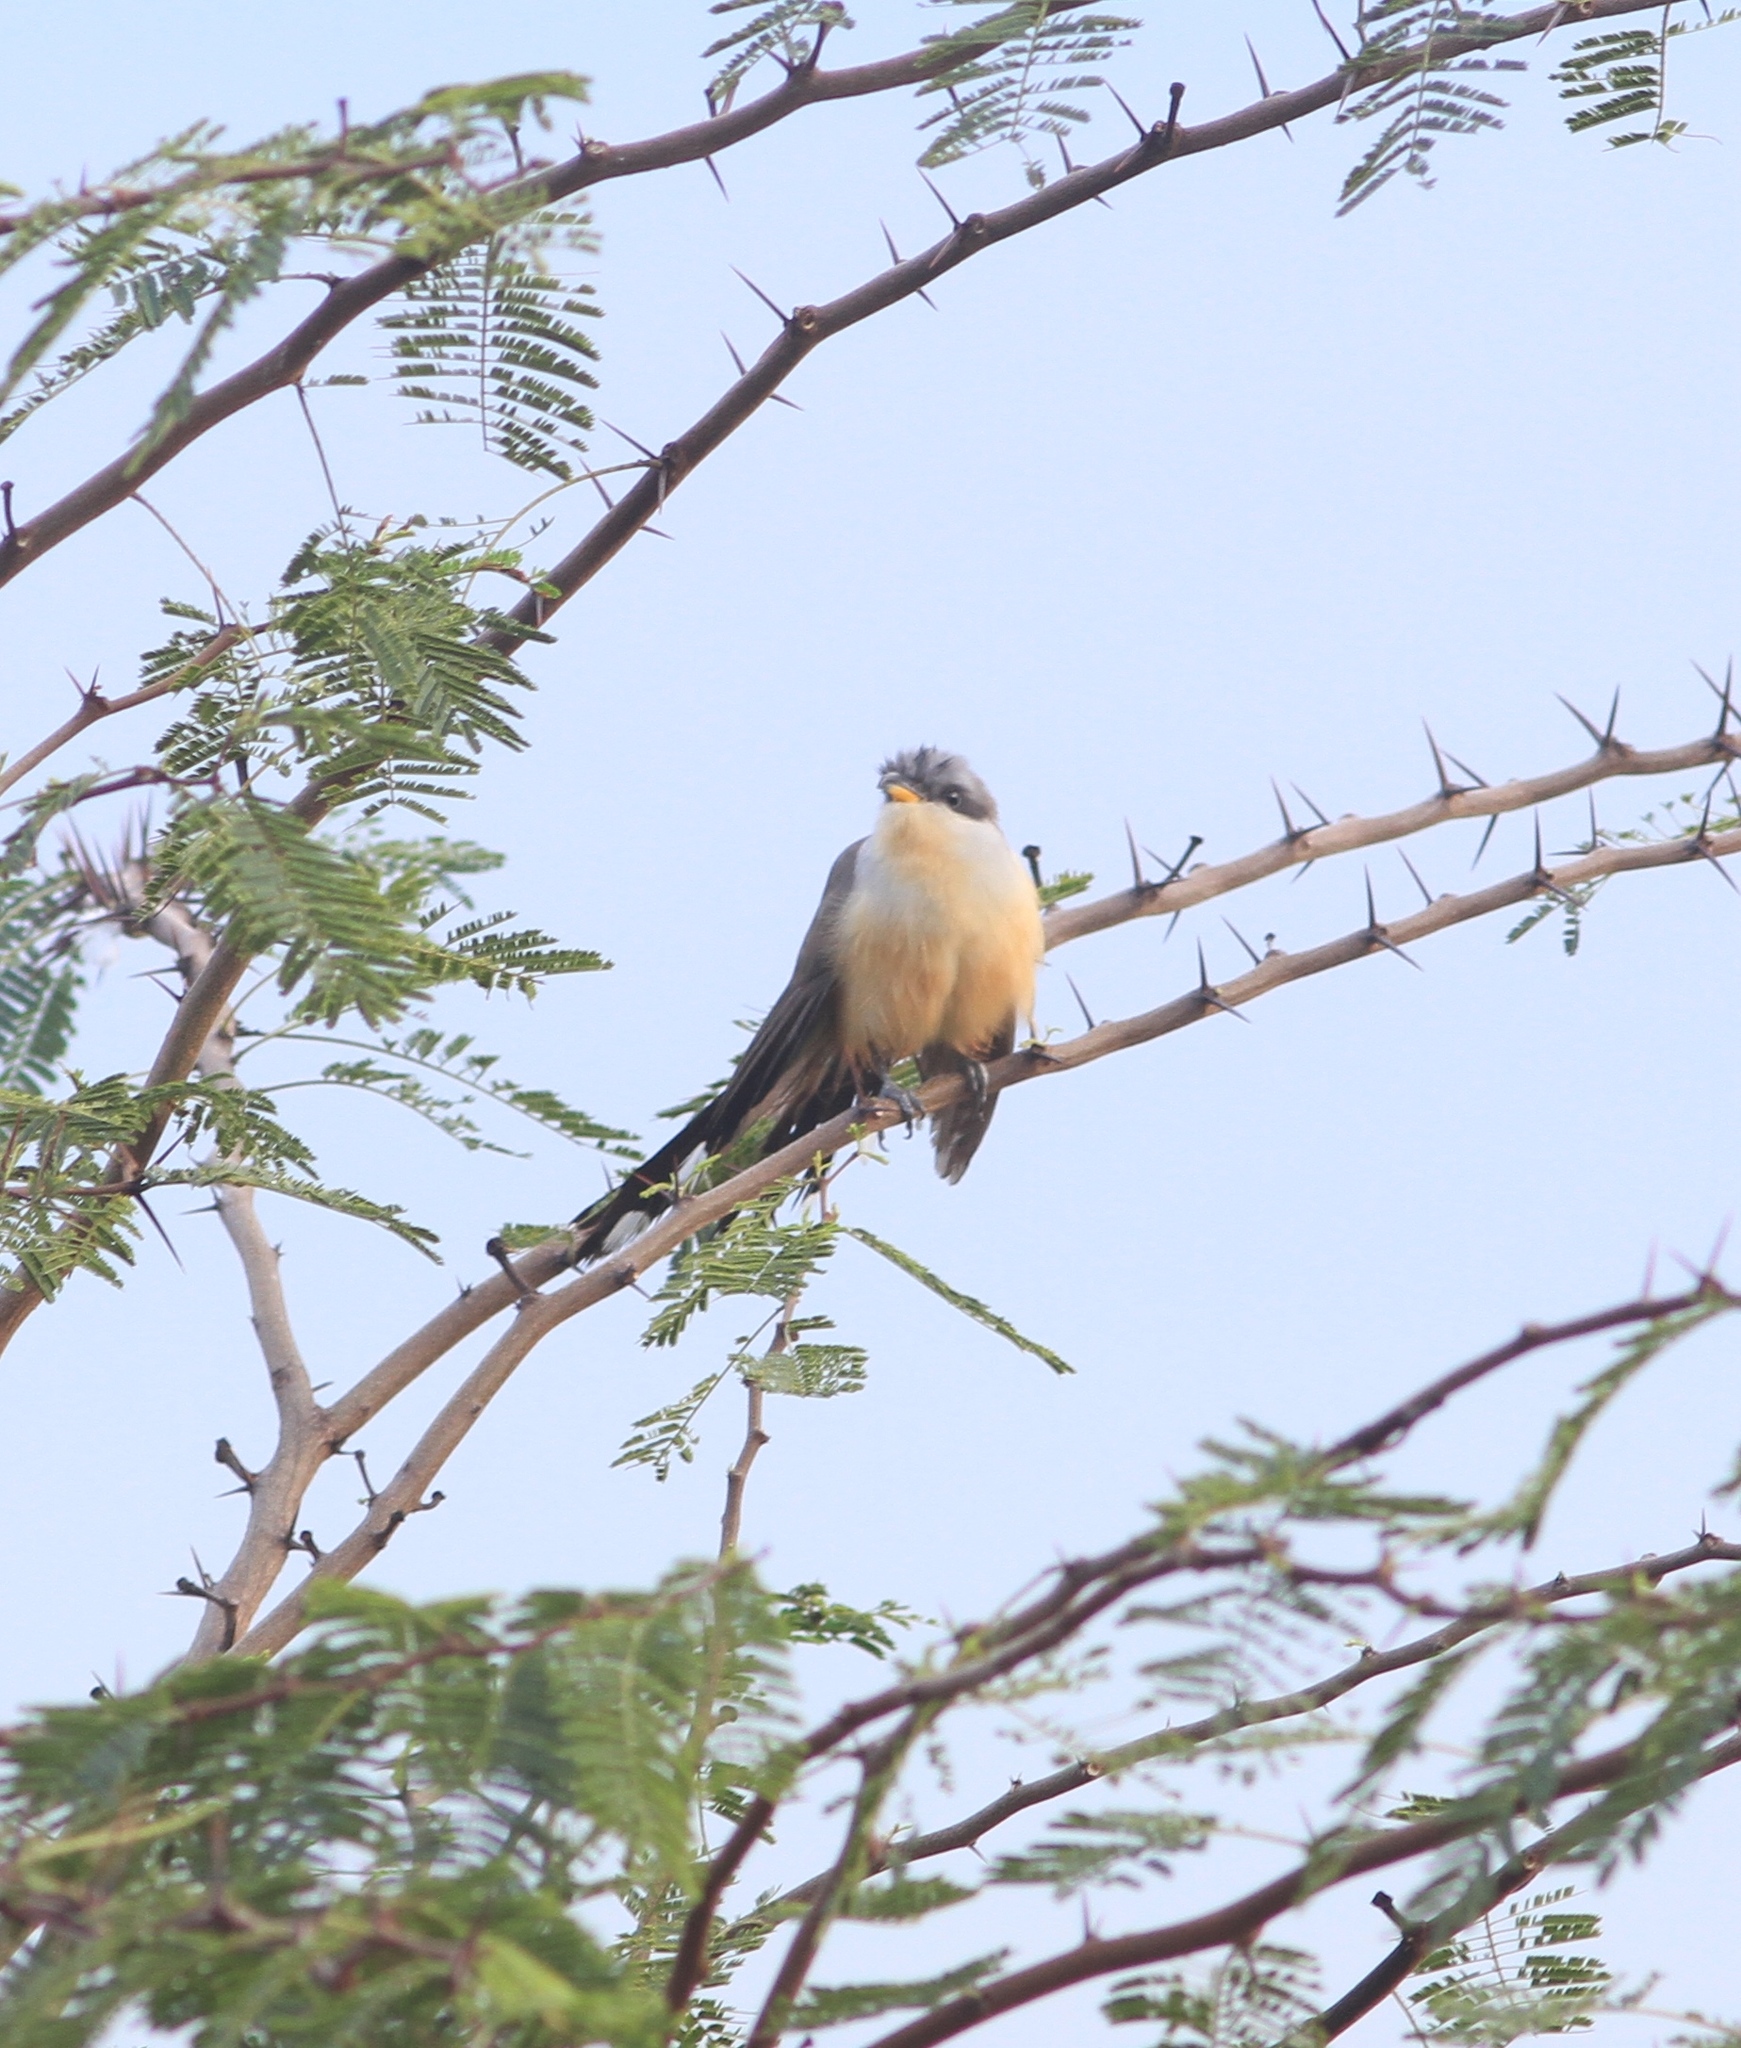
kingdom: Animalia
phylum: Chordata
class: Aves
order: Cuculiformes
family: Cuculidae
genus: Coccyzus
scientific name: Coccyzus minor
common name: Mangrove cuckoo
